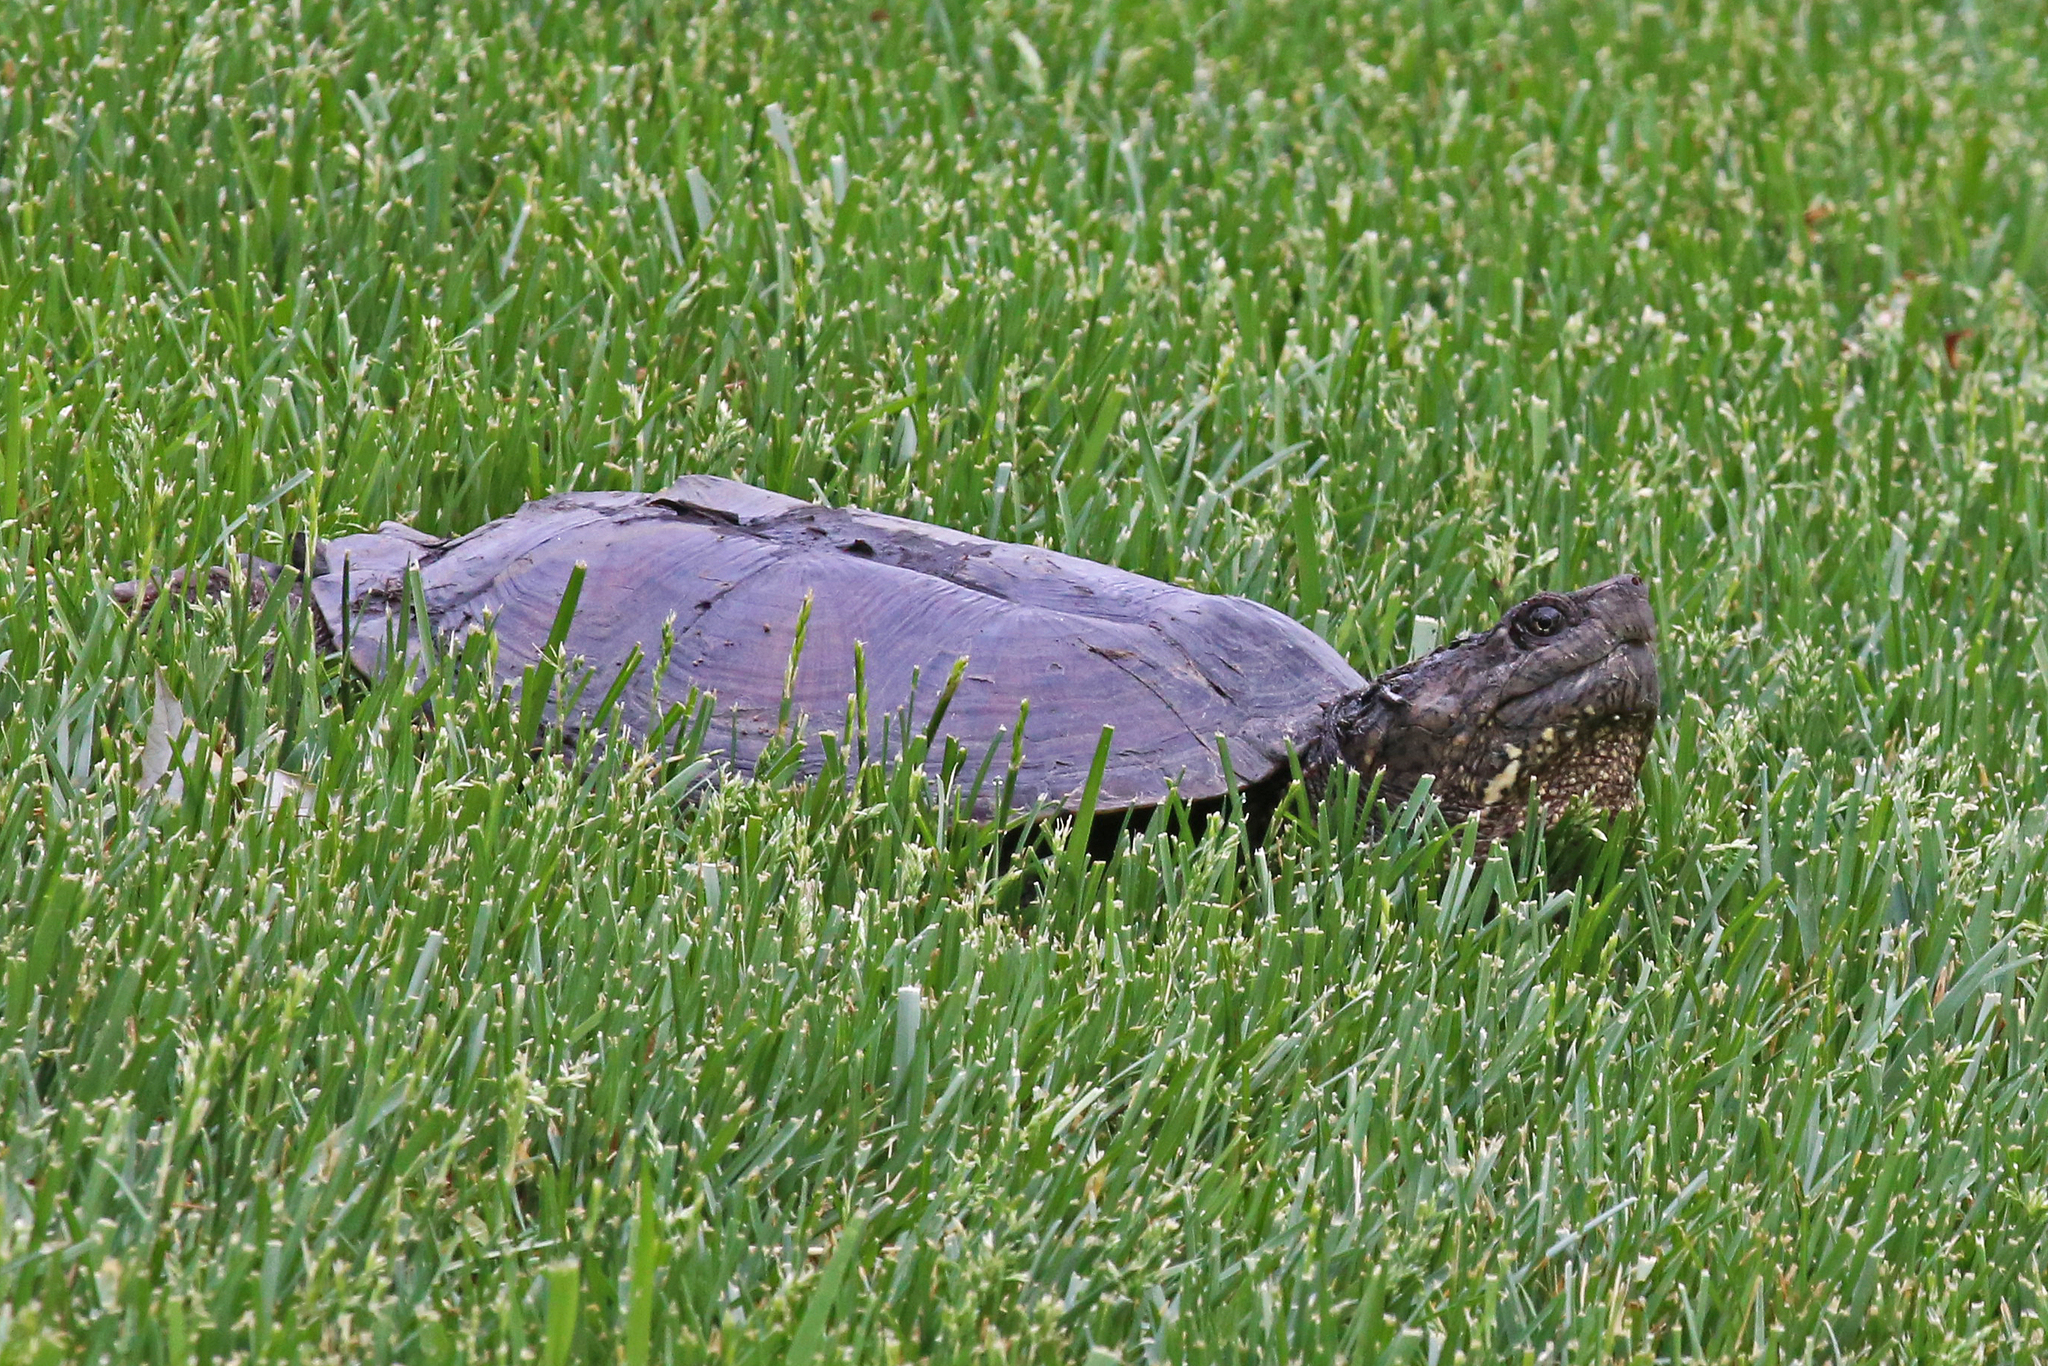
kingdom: Animalia
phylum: Chordata
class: Testudines
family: Chelydridae
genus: Chelydra
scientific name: Chelydra serpentina
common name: Common snapping turtle
